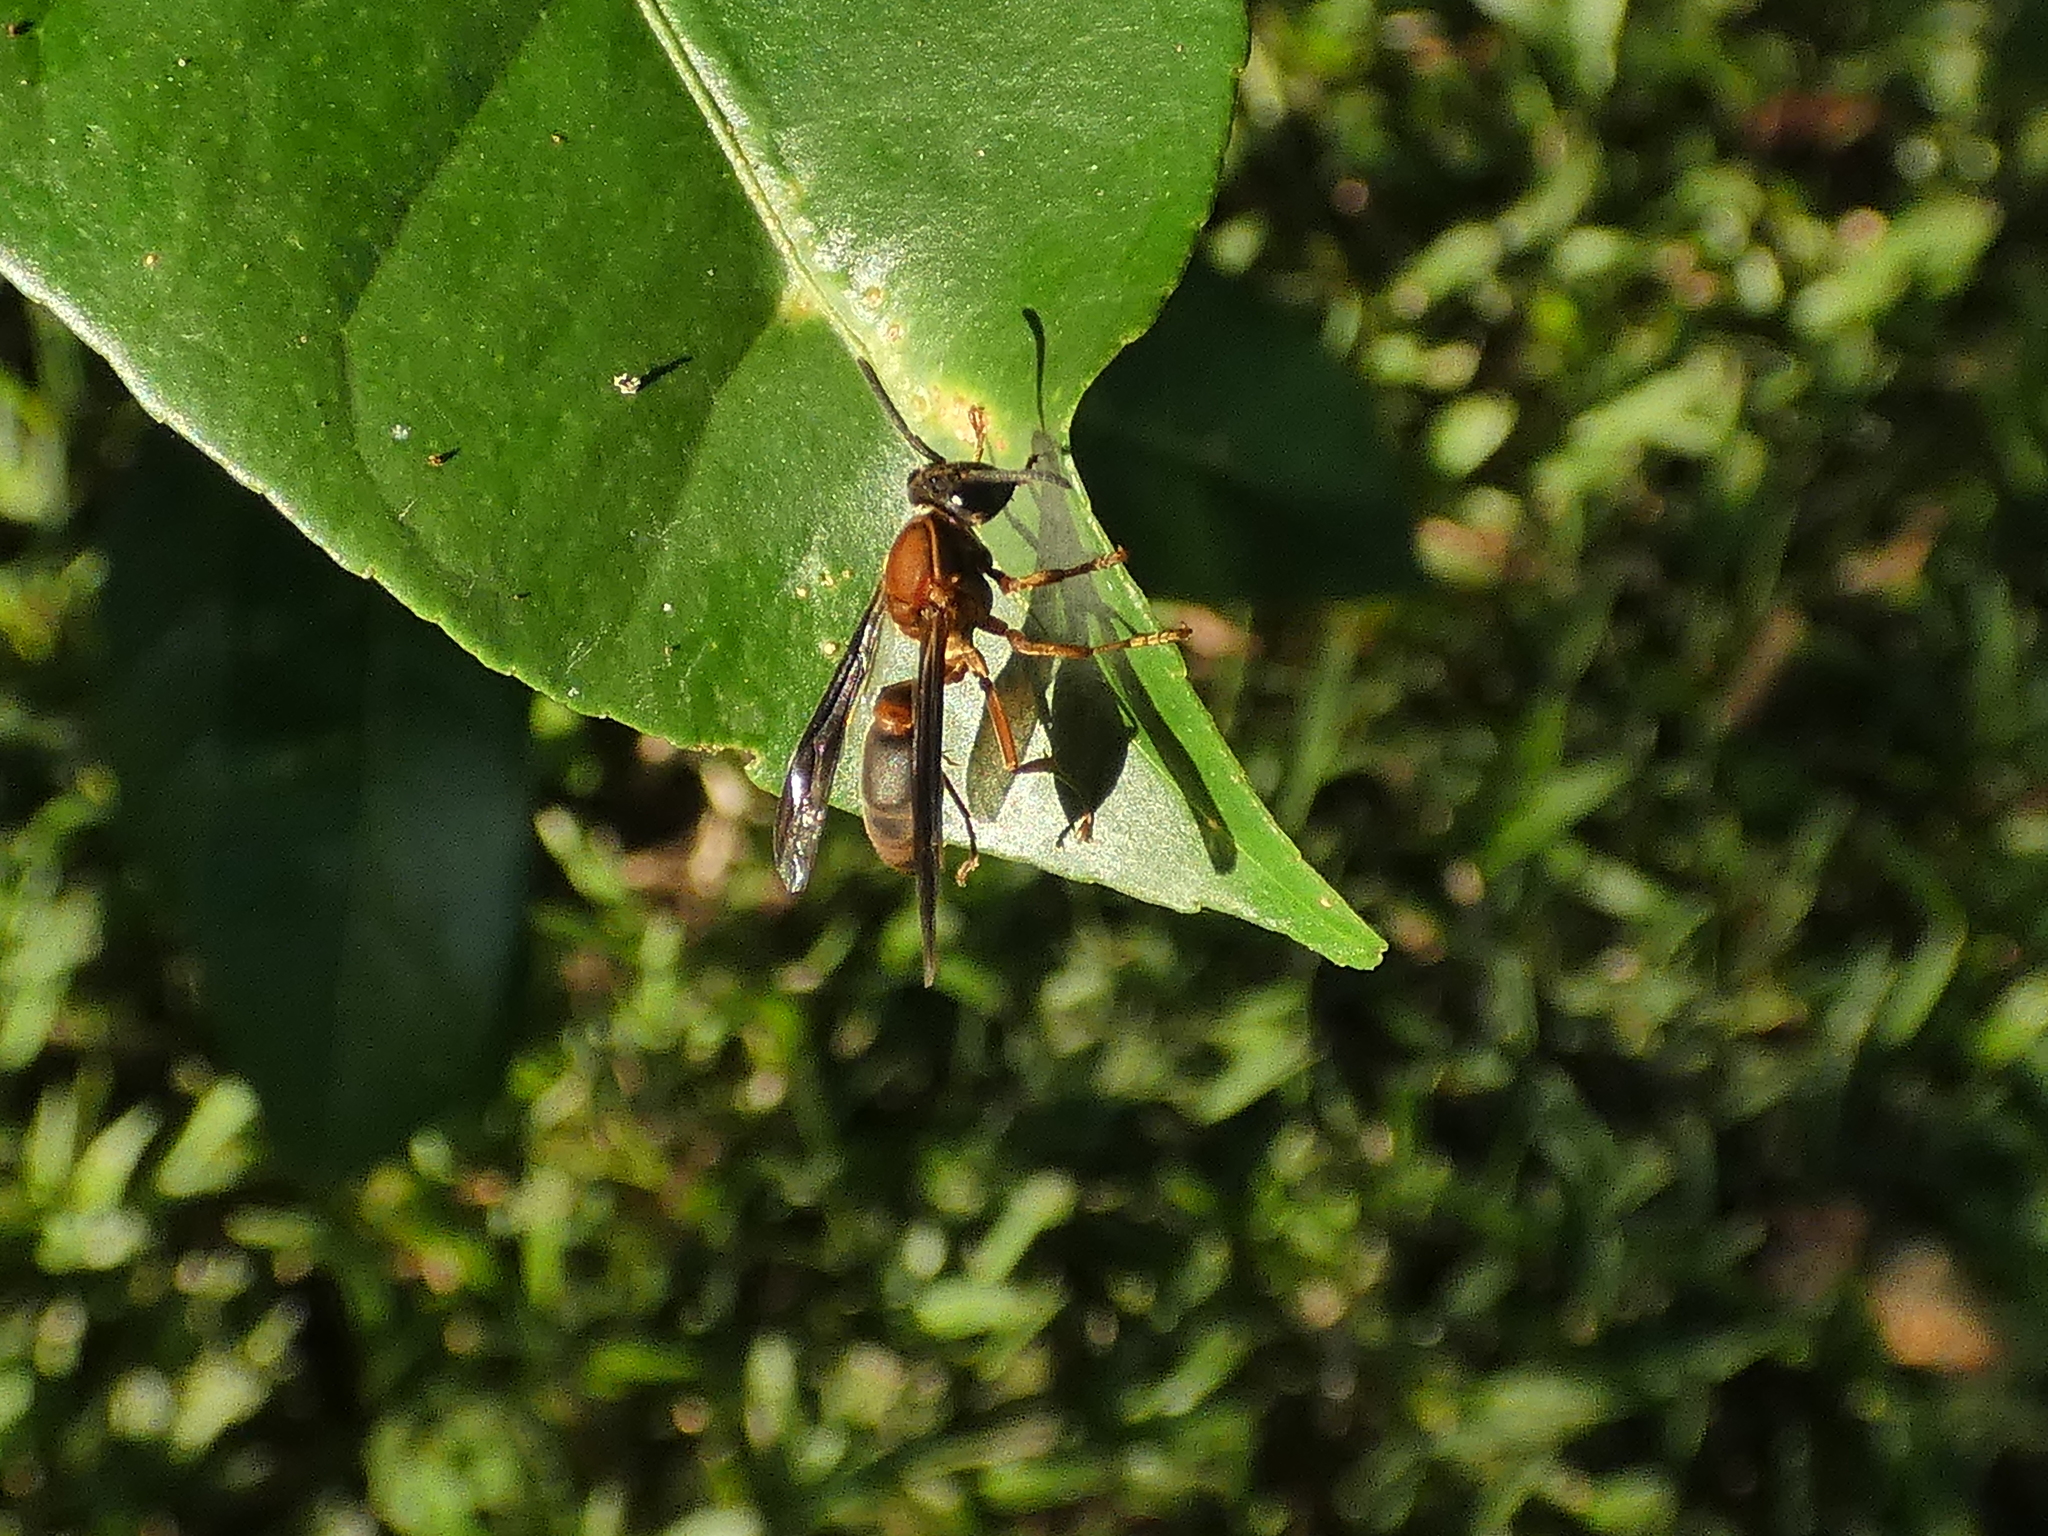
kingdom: Animalia
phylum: Arthropoda
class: Insecta
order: Hymenoptera
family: Eumenidae
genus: Polybia
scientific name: Polybia sericea
